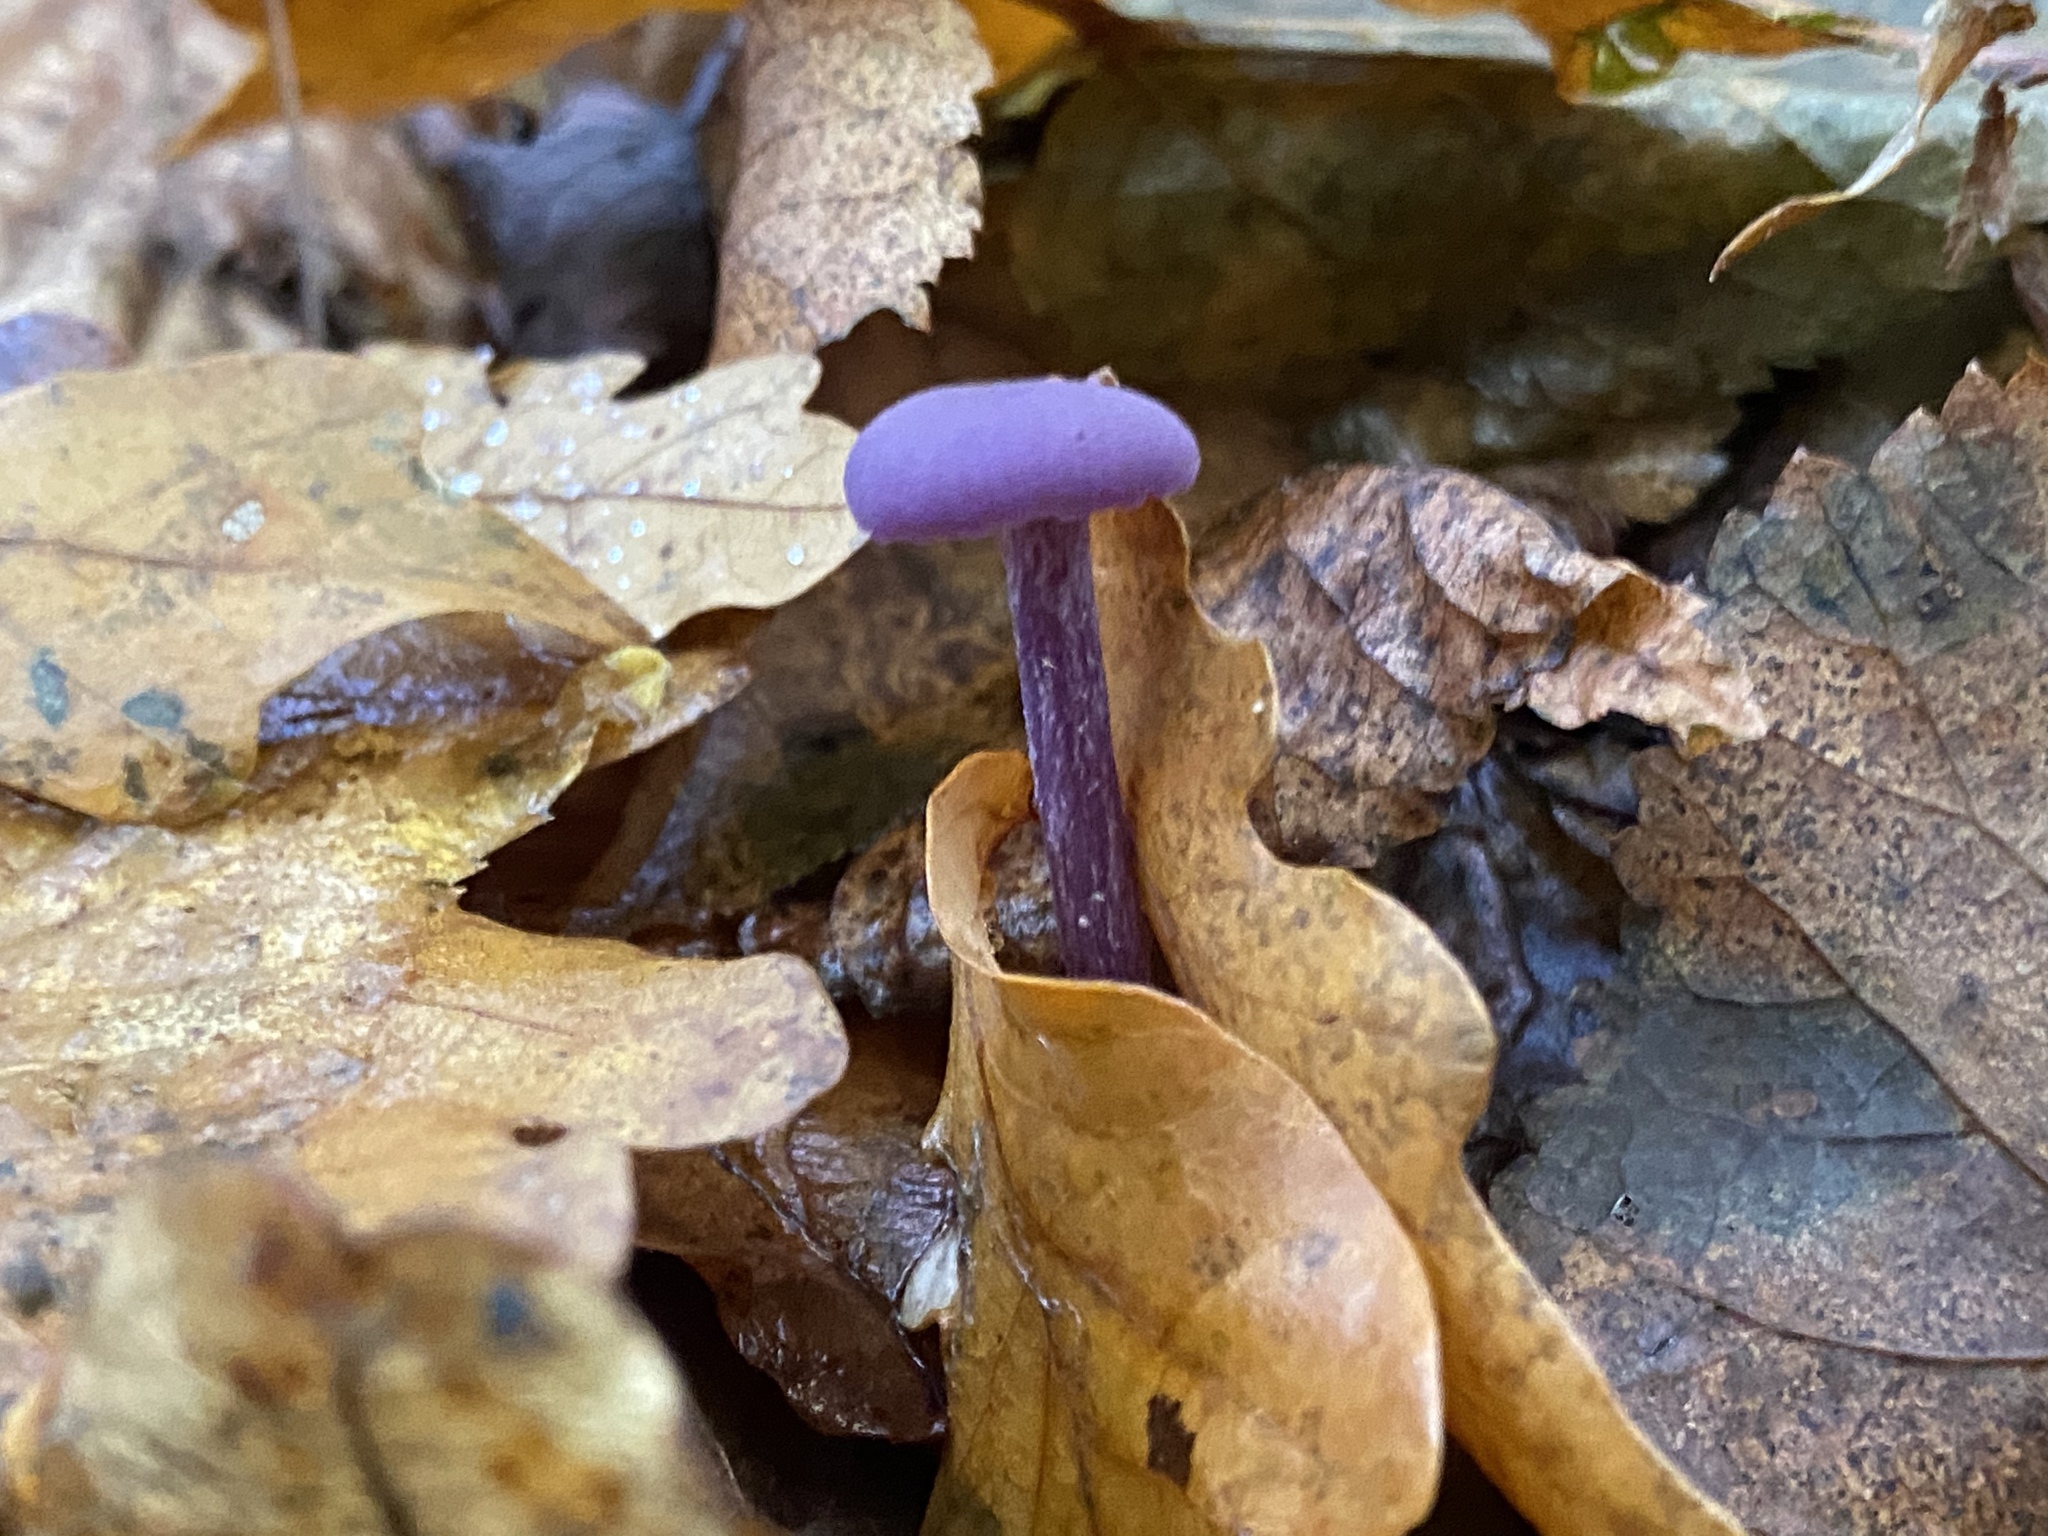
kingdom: Fungi
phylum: Basidiomycota
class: Agaricomycetes
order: Agaricales
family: Hydnangiaceae
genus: Laccaria
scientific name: Laccaria amethystina
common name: Amethyst deceiver
